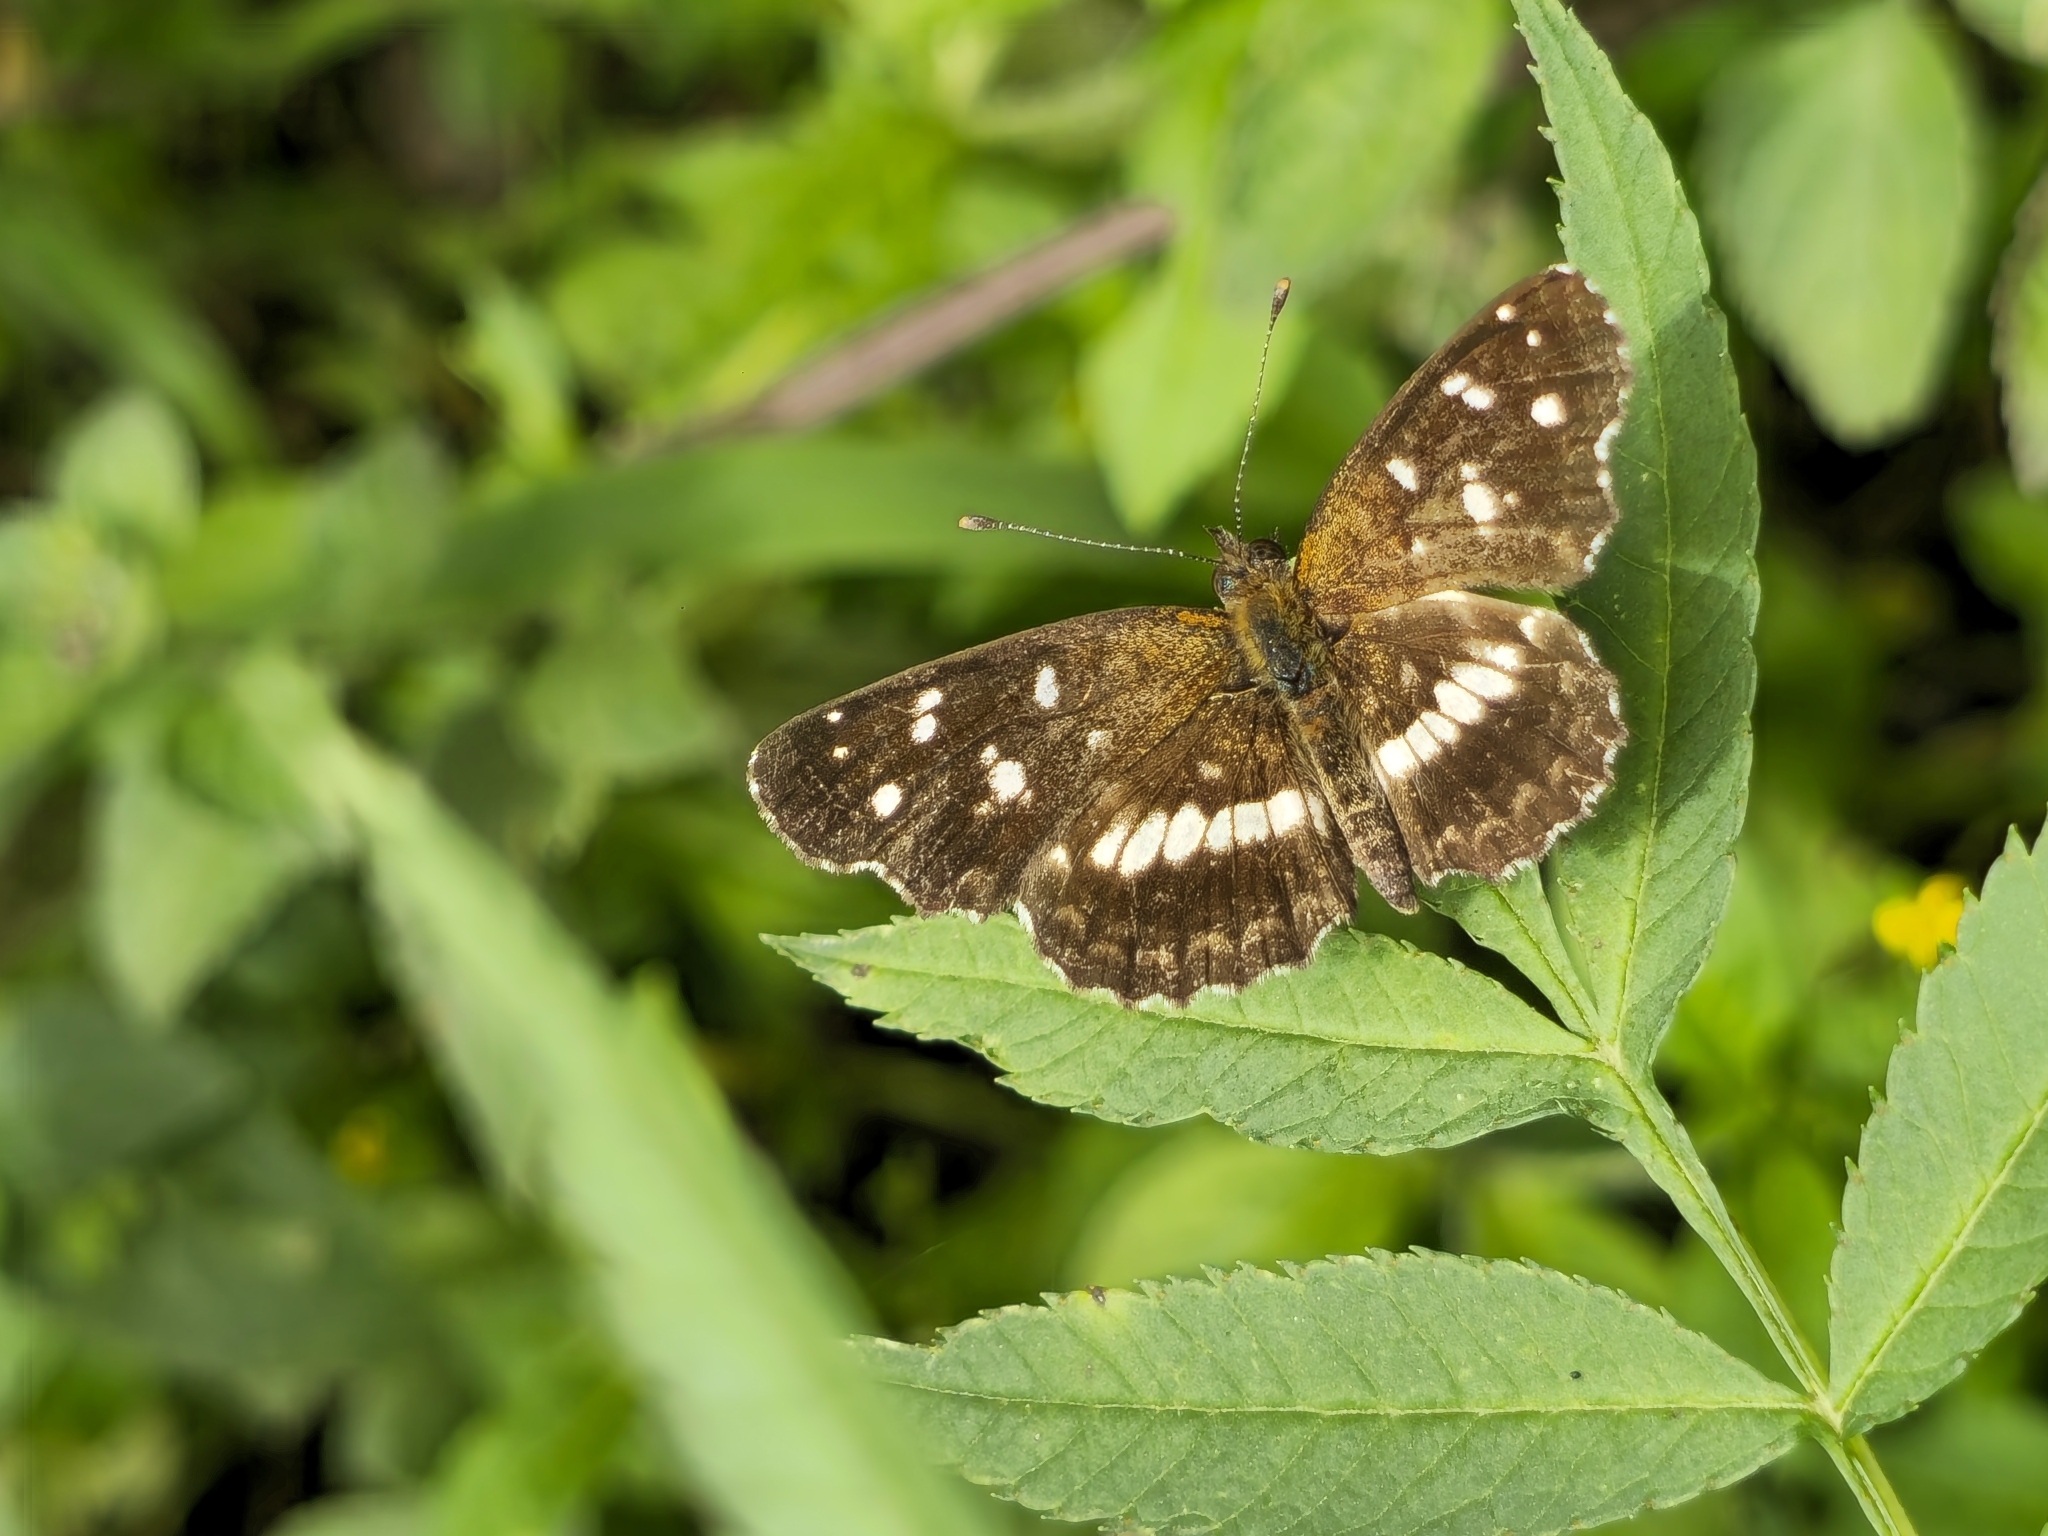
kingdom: Animalia
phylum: Arthropoda
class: Insecta
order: Lepidoptera
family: Nymphalidae
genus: Ortilia
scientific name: Ortilia ithra
